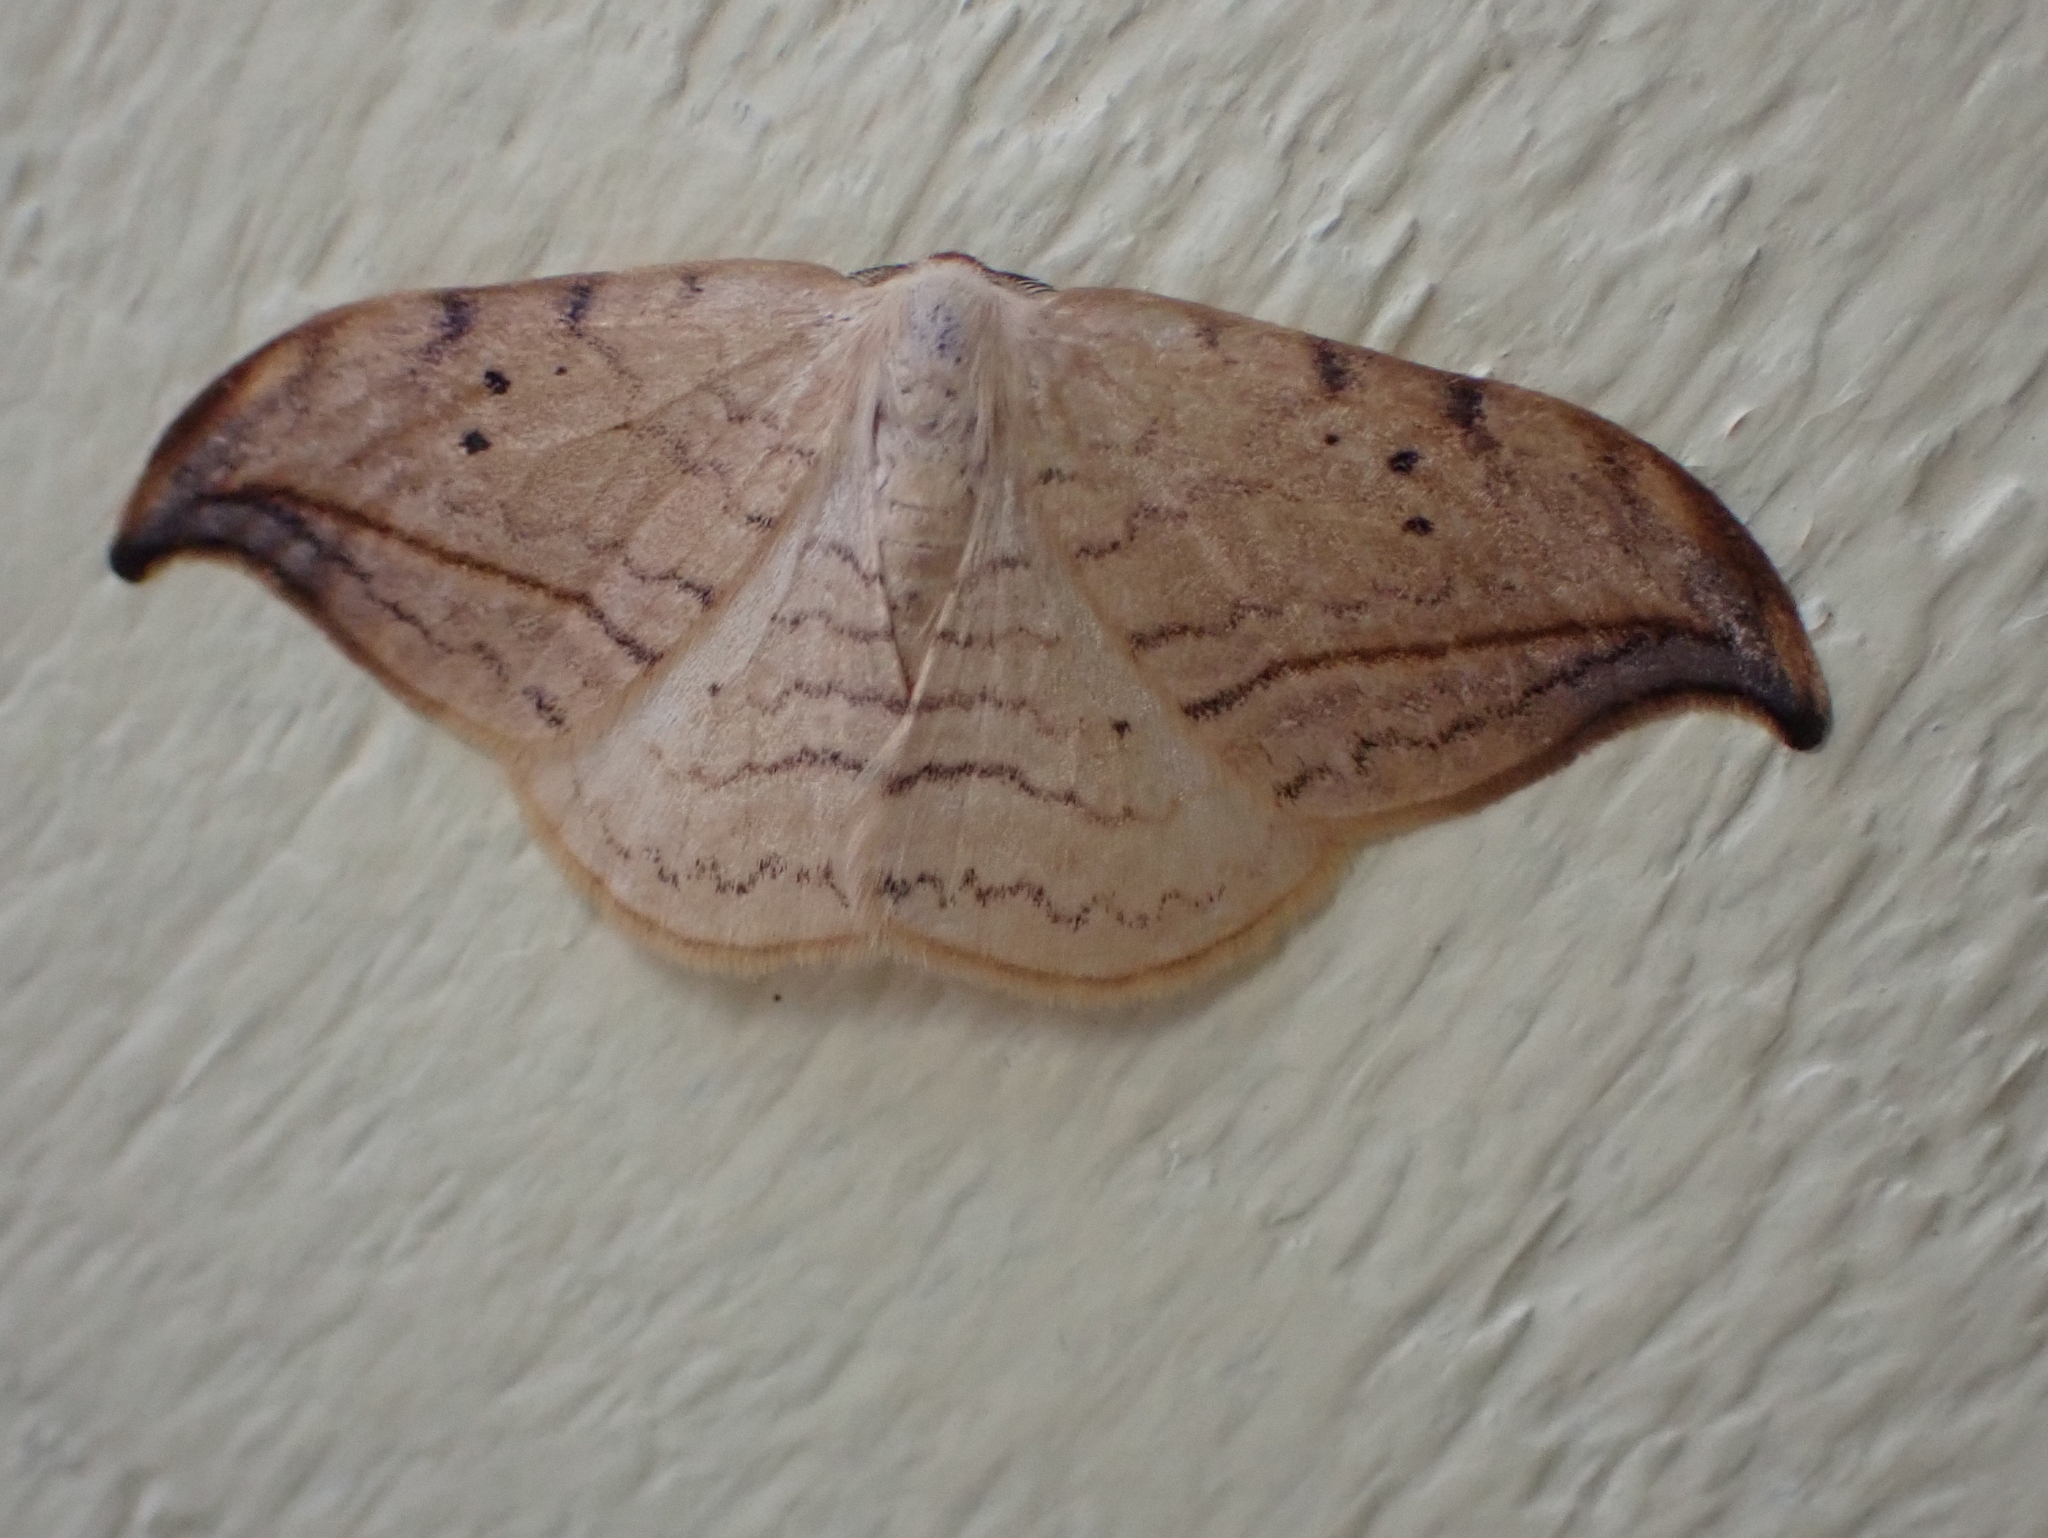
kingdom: Animalia
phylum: Arthropoda
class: Insecta
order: Lepidoptera
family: Drepanidae
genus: Drepana
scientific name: Drepana arcuata
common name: Arched hooktip moth
